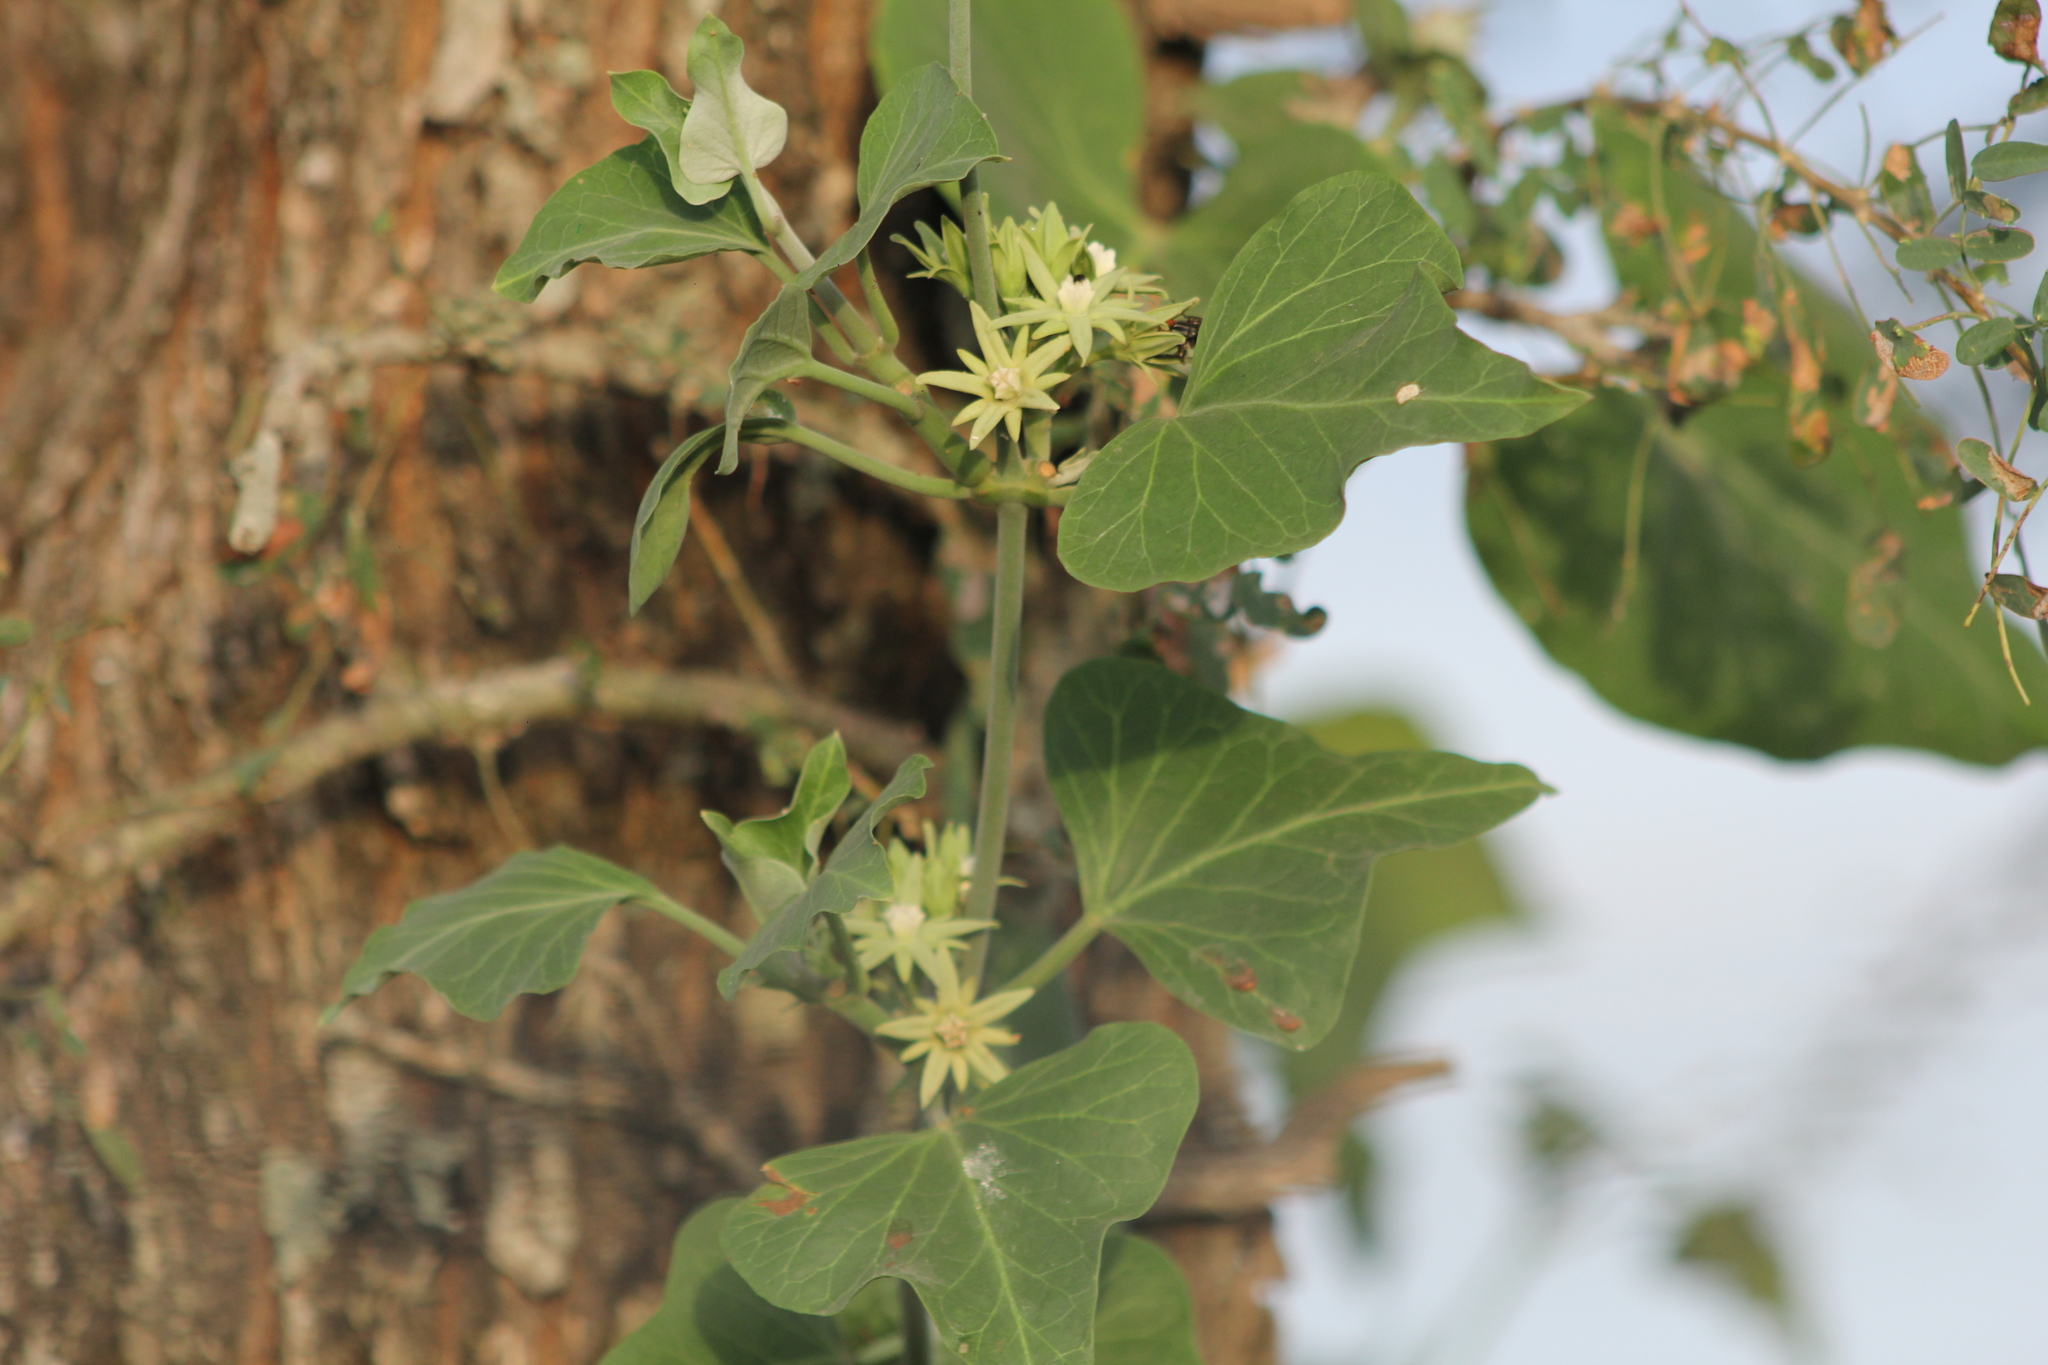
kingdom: Plantae
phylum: Tracheophyta
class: Magnoliopsida
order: Gentianales
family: Apocynaceae
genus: Araujia
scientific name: Araujia odorata
